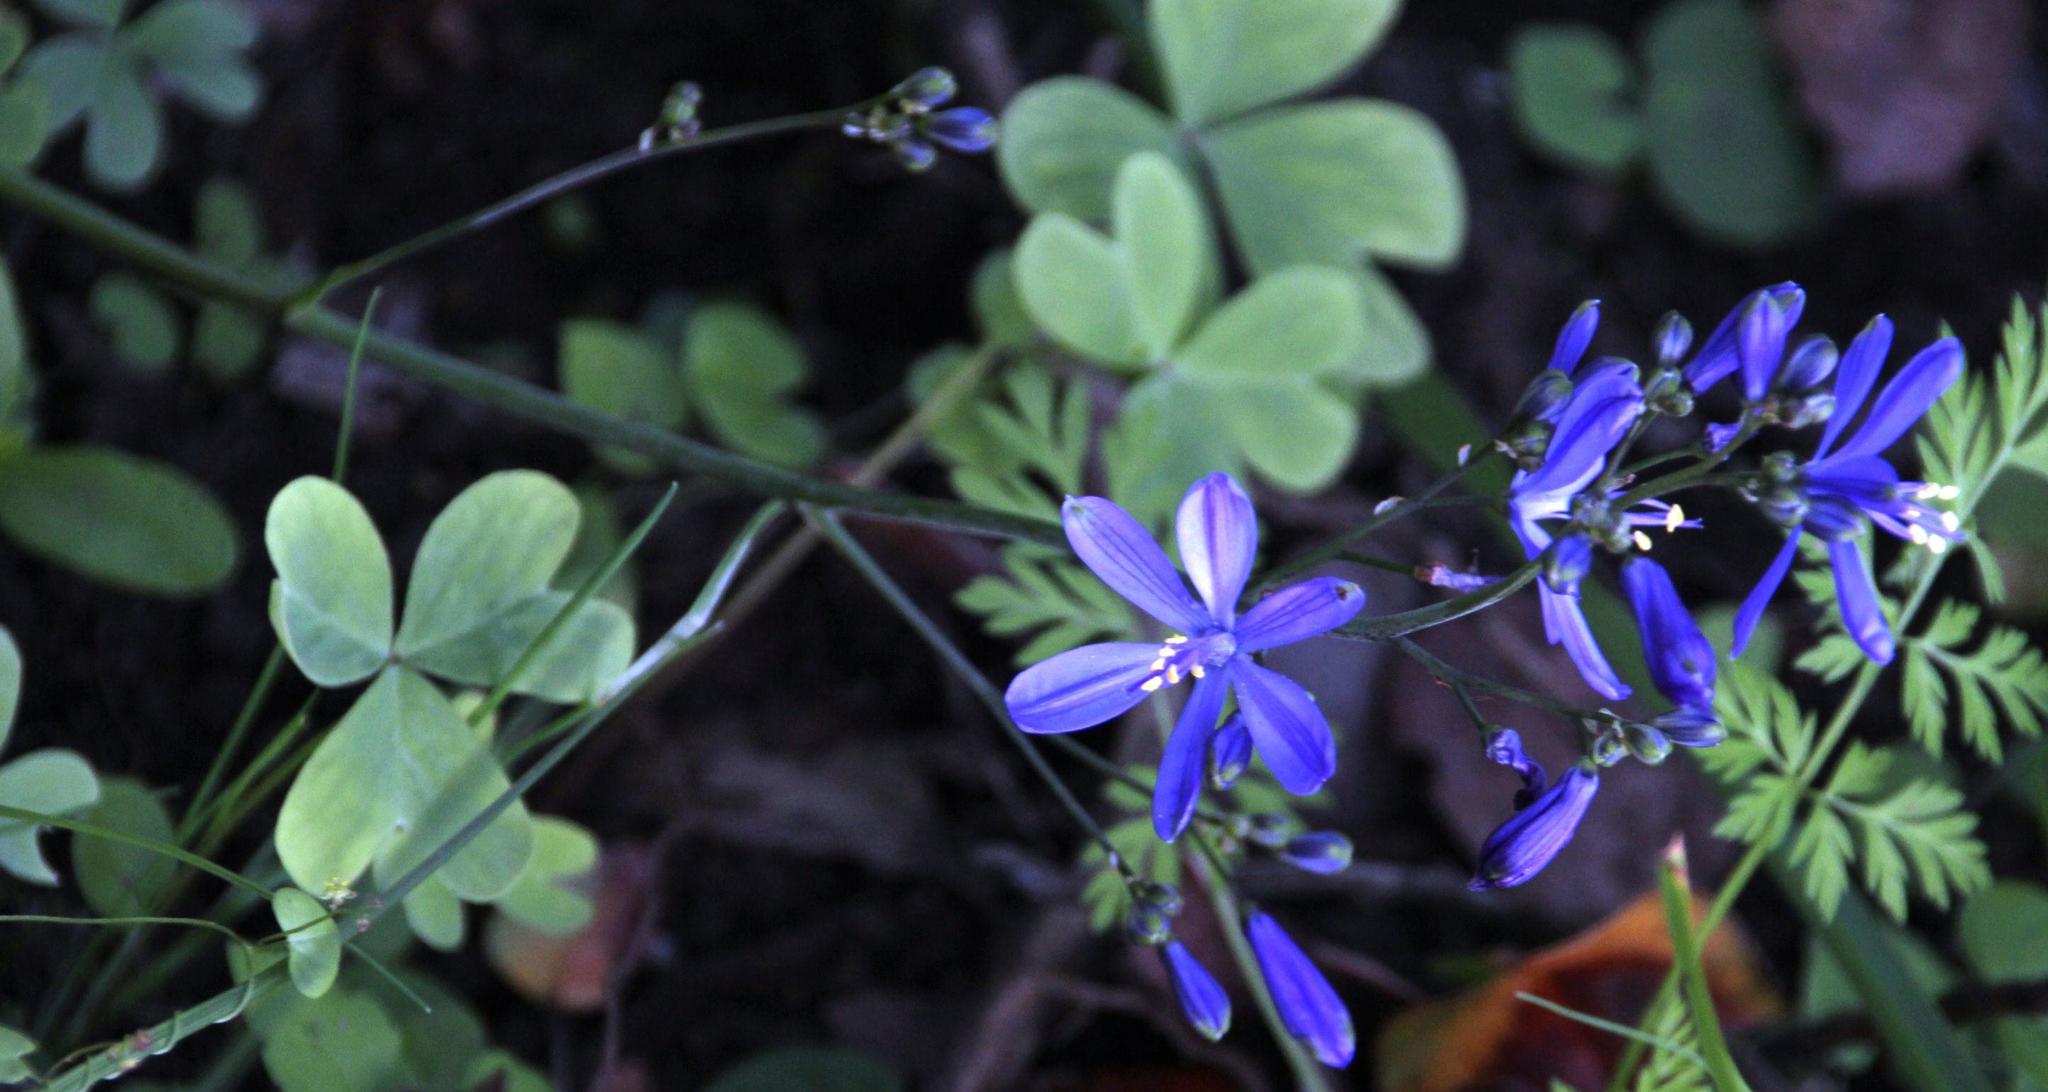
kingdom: Plantae
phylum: Tracheophyta
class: Liliopsida
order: Asparagales
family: Asphodelaceae
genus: Pasithea
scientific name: Pasithea caerulea
